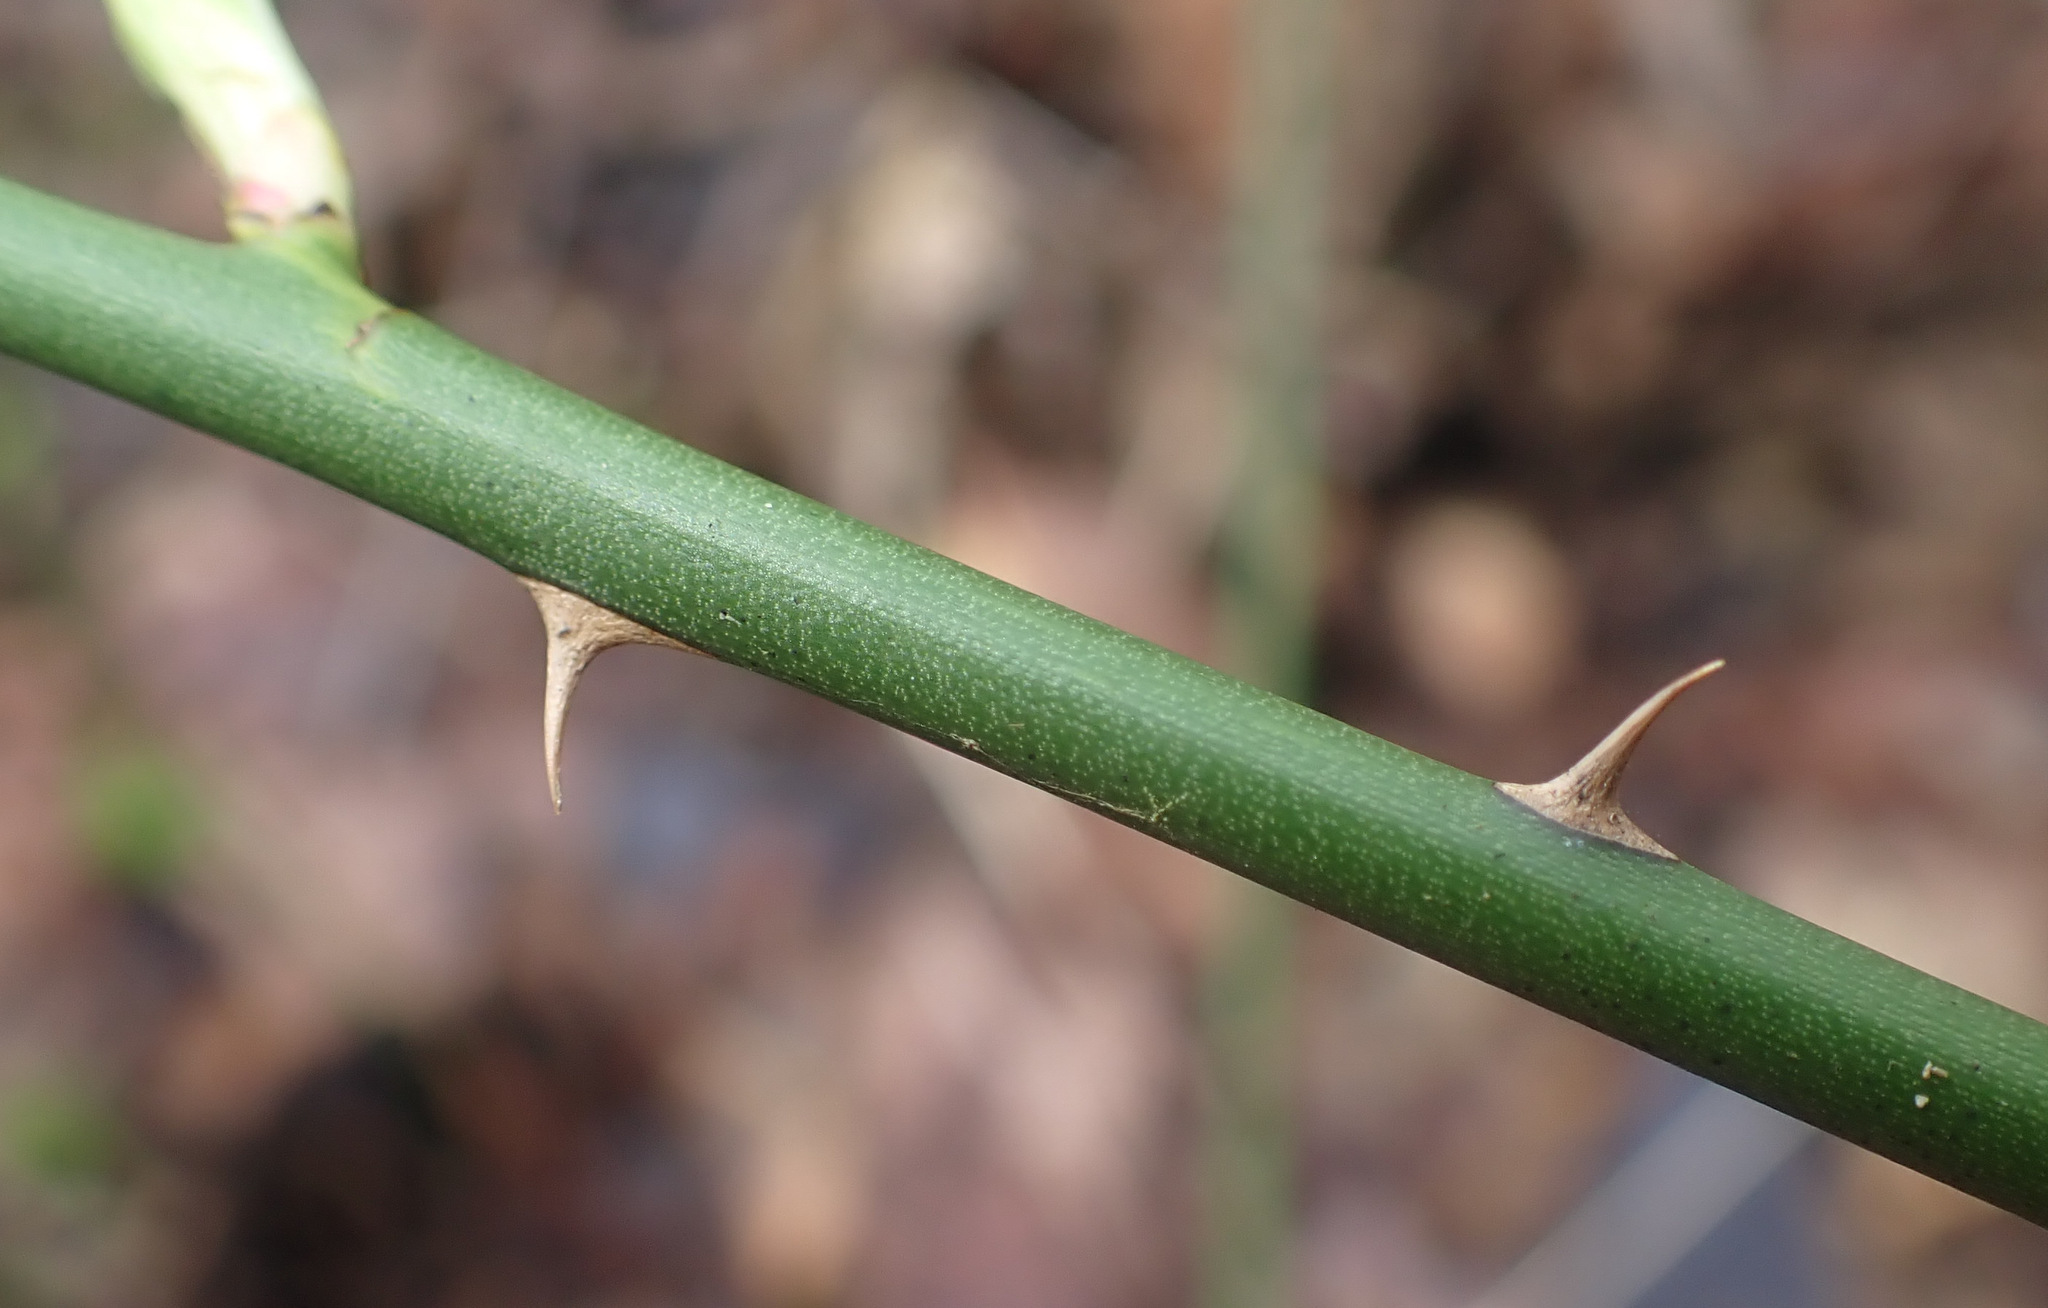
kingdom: Plantae
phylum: Tracheophyta
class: Magnoliopsida
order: Rosales
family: Rosaceae
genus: Rosa
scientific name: Rosa arvensis
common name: Field rose
